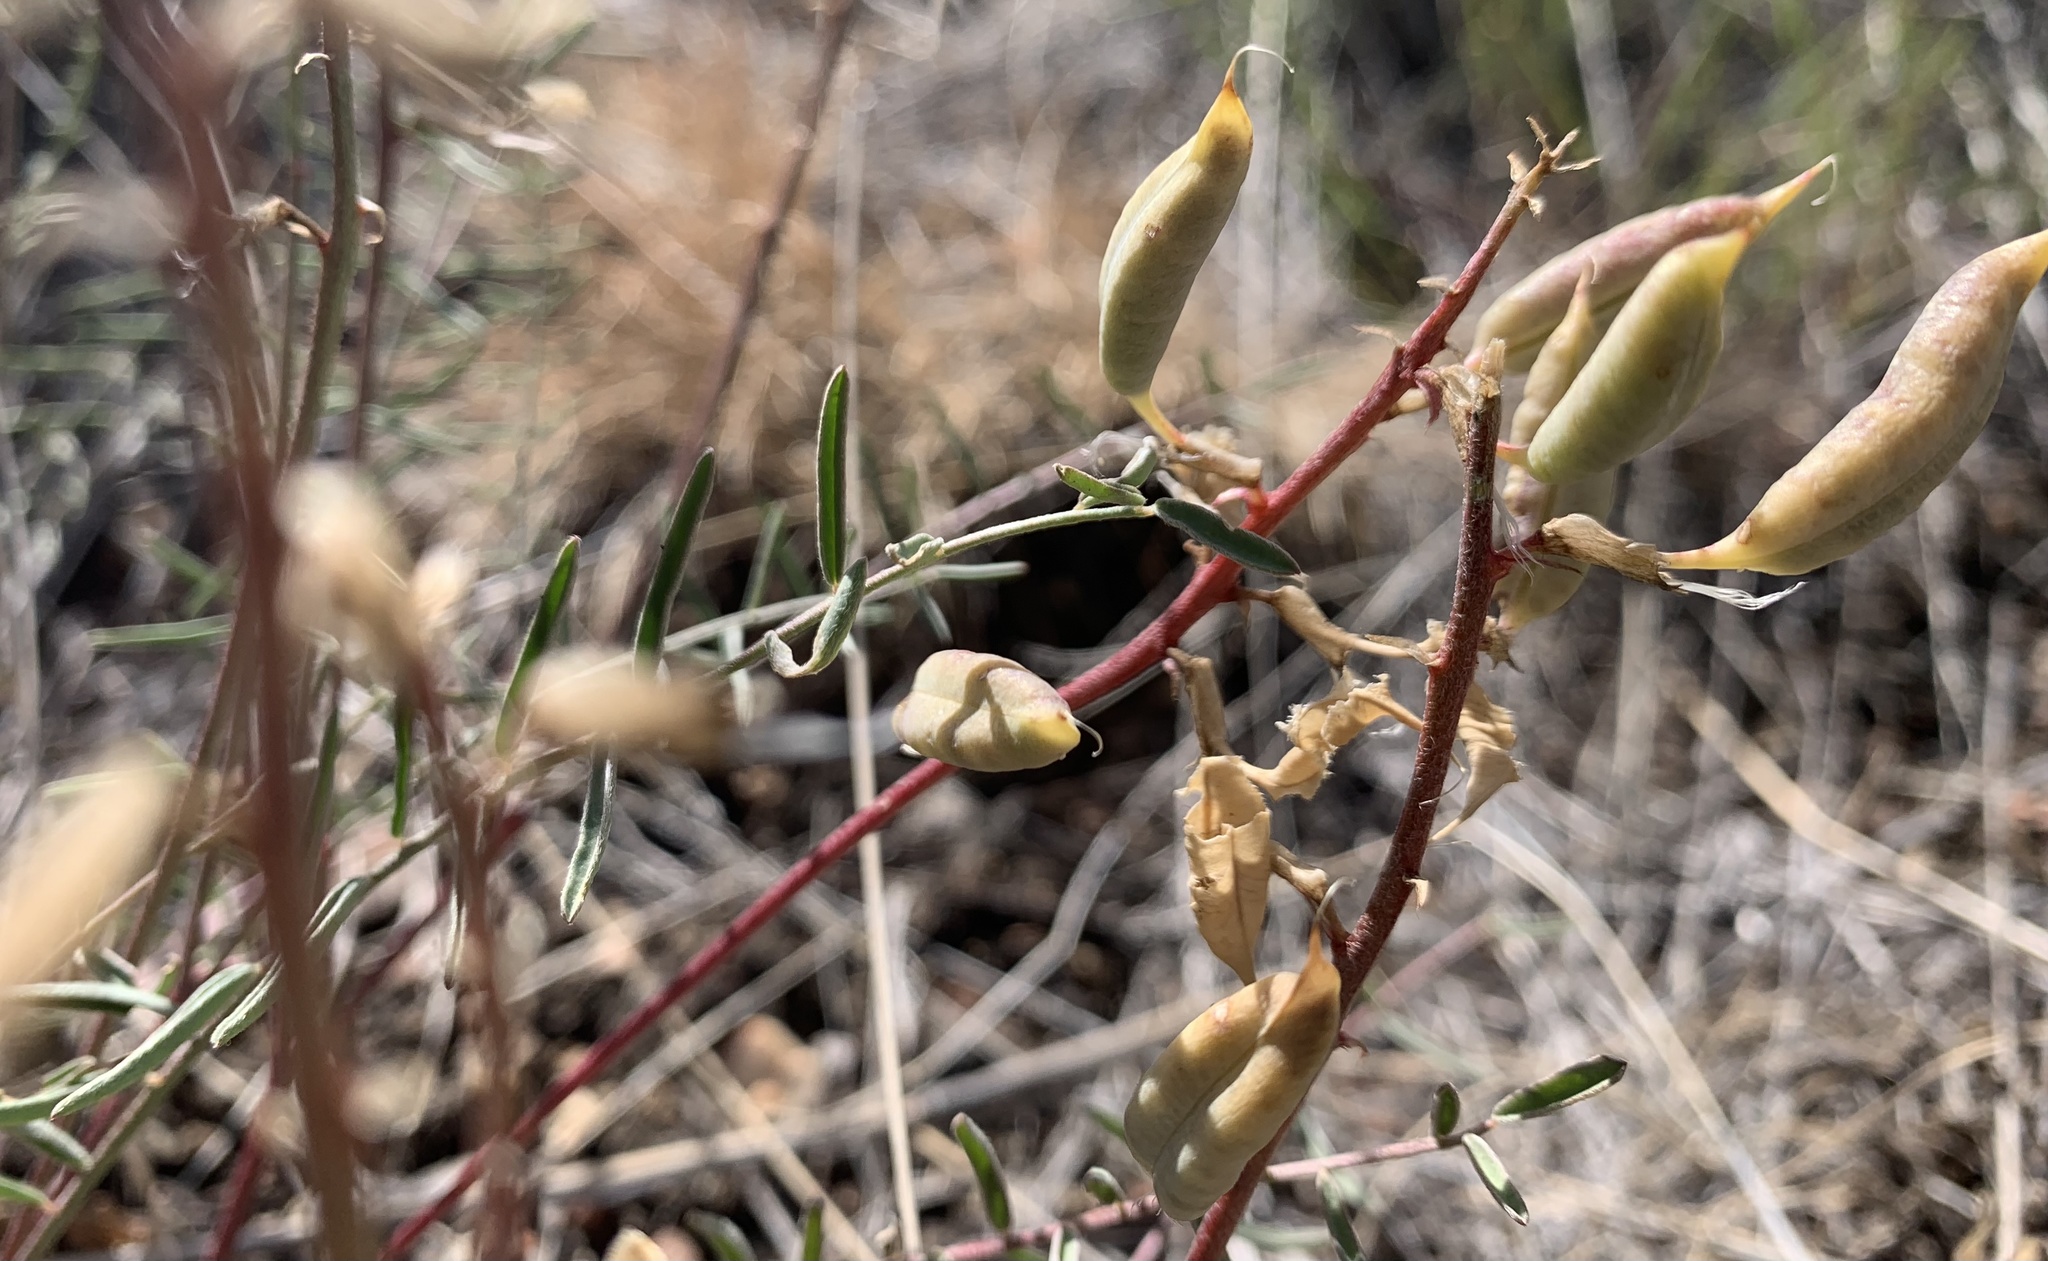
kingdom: Plantae
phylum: Tracheophyta
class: Magnoliopsida
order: Fabales
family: Fabaceae
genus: Astragalus
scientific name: Astragalus eremiticus
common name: Hermit milk-vetch
